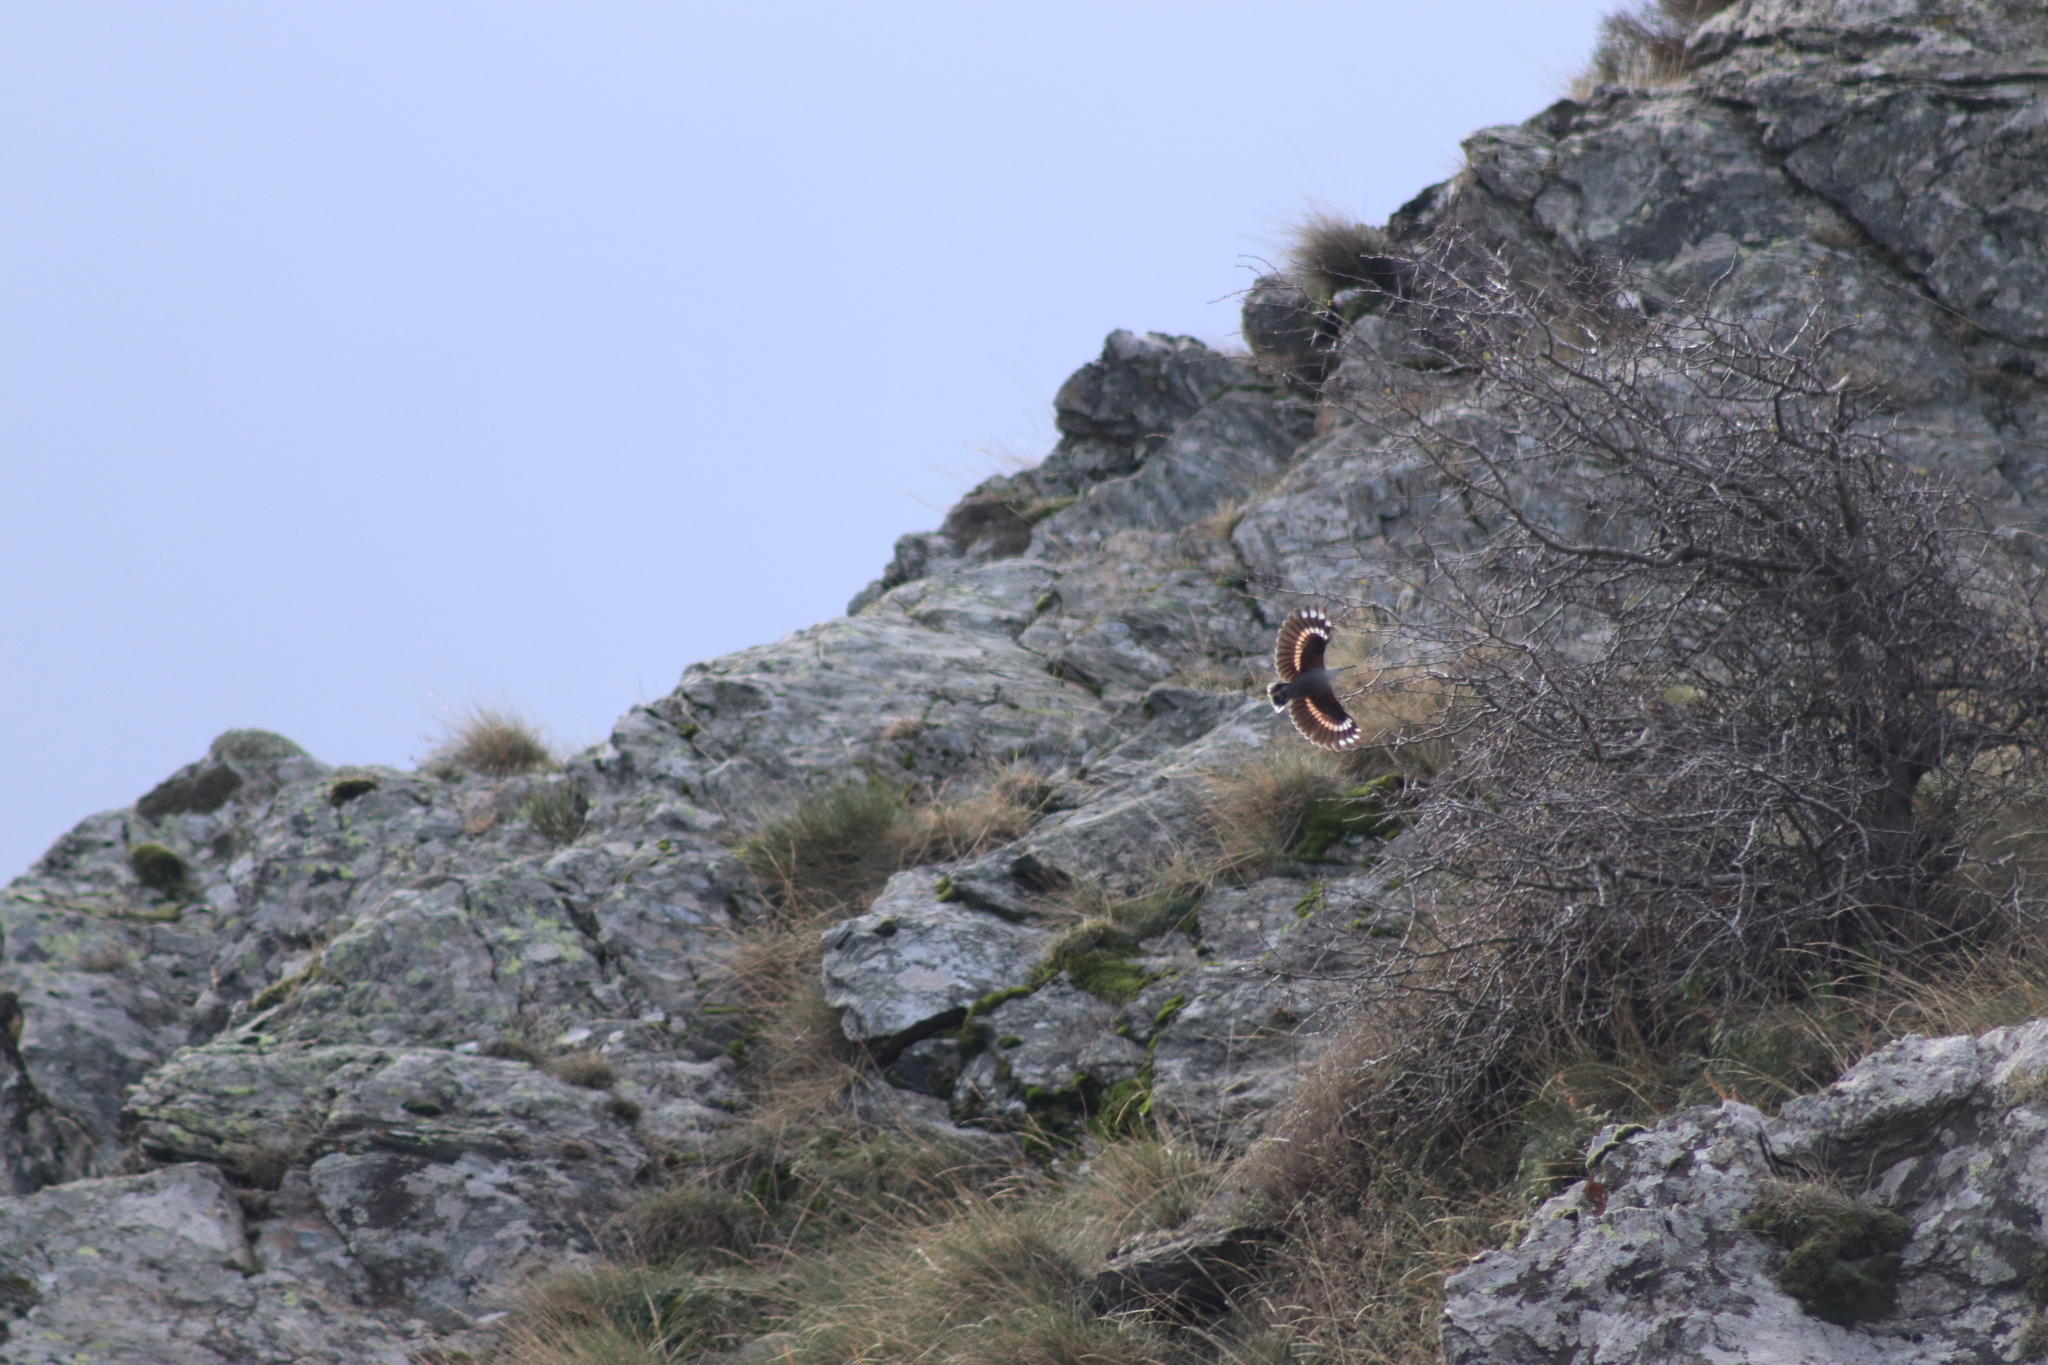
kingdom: Animalia
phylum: Chordata
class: Aves
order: Passeriformes
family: Tichodromidae
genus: Tichodroma
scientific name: Tichodroma muraria
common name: Wallcreeper
